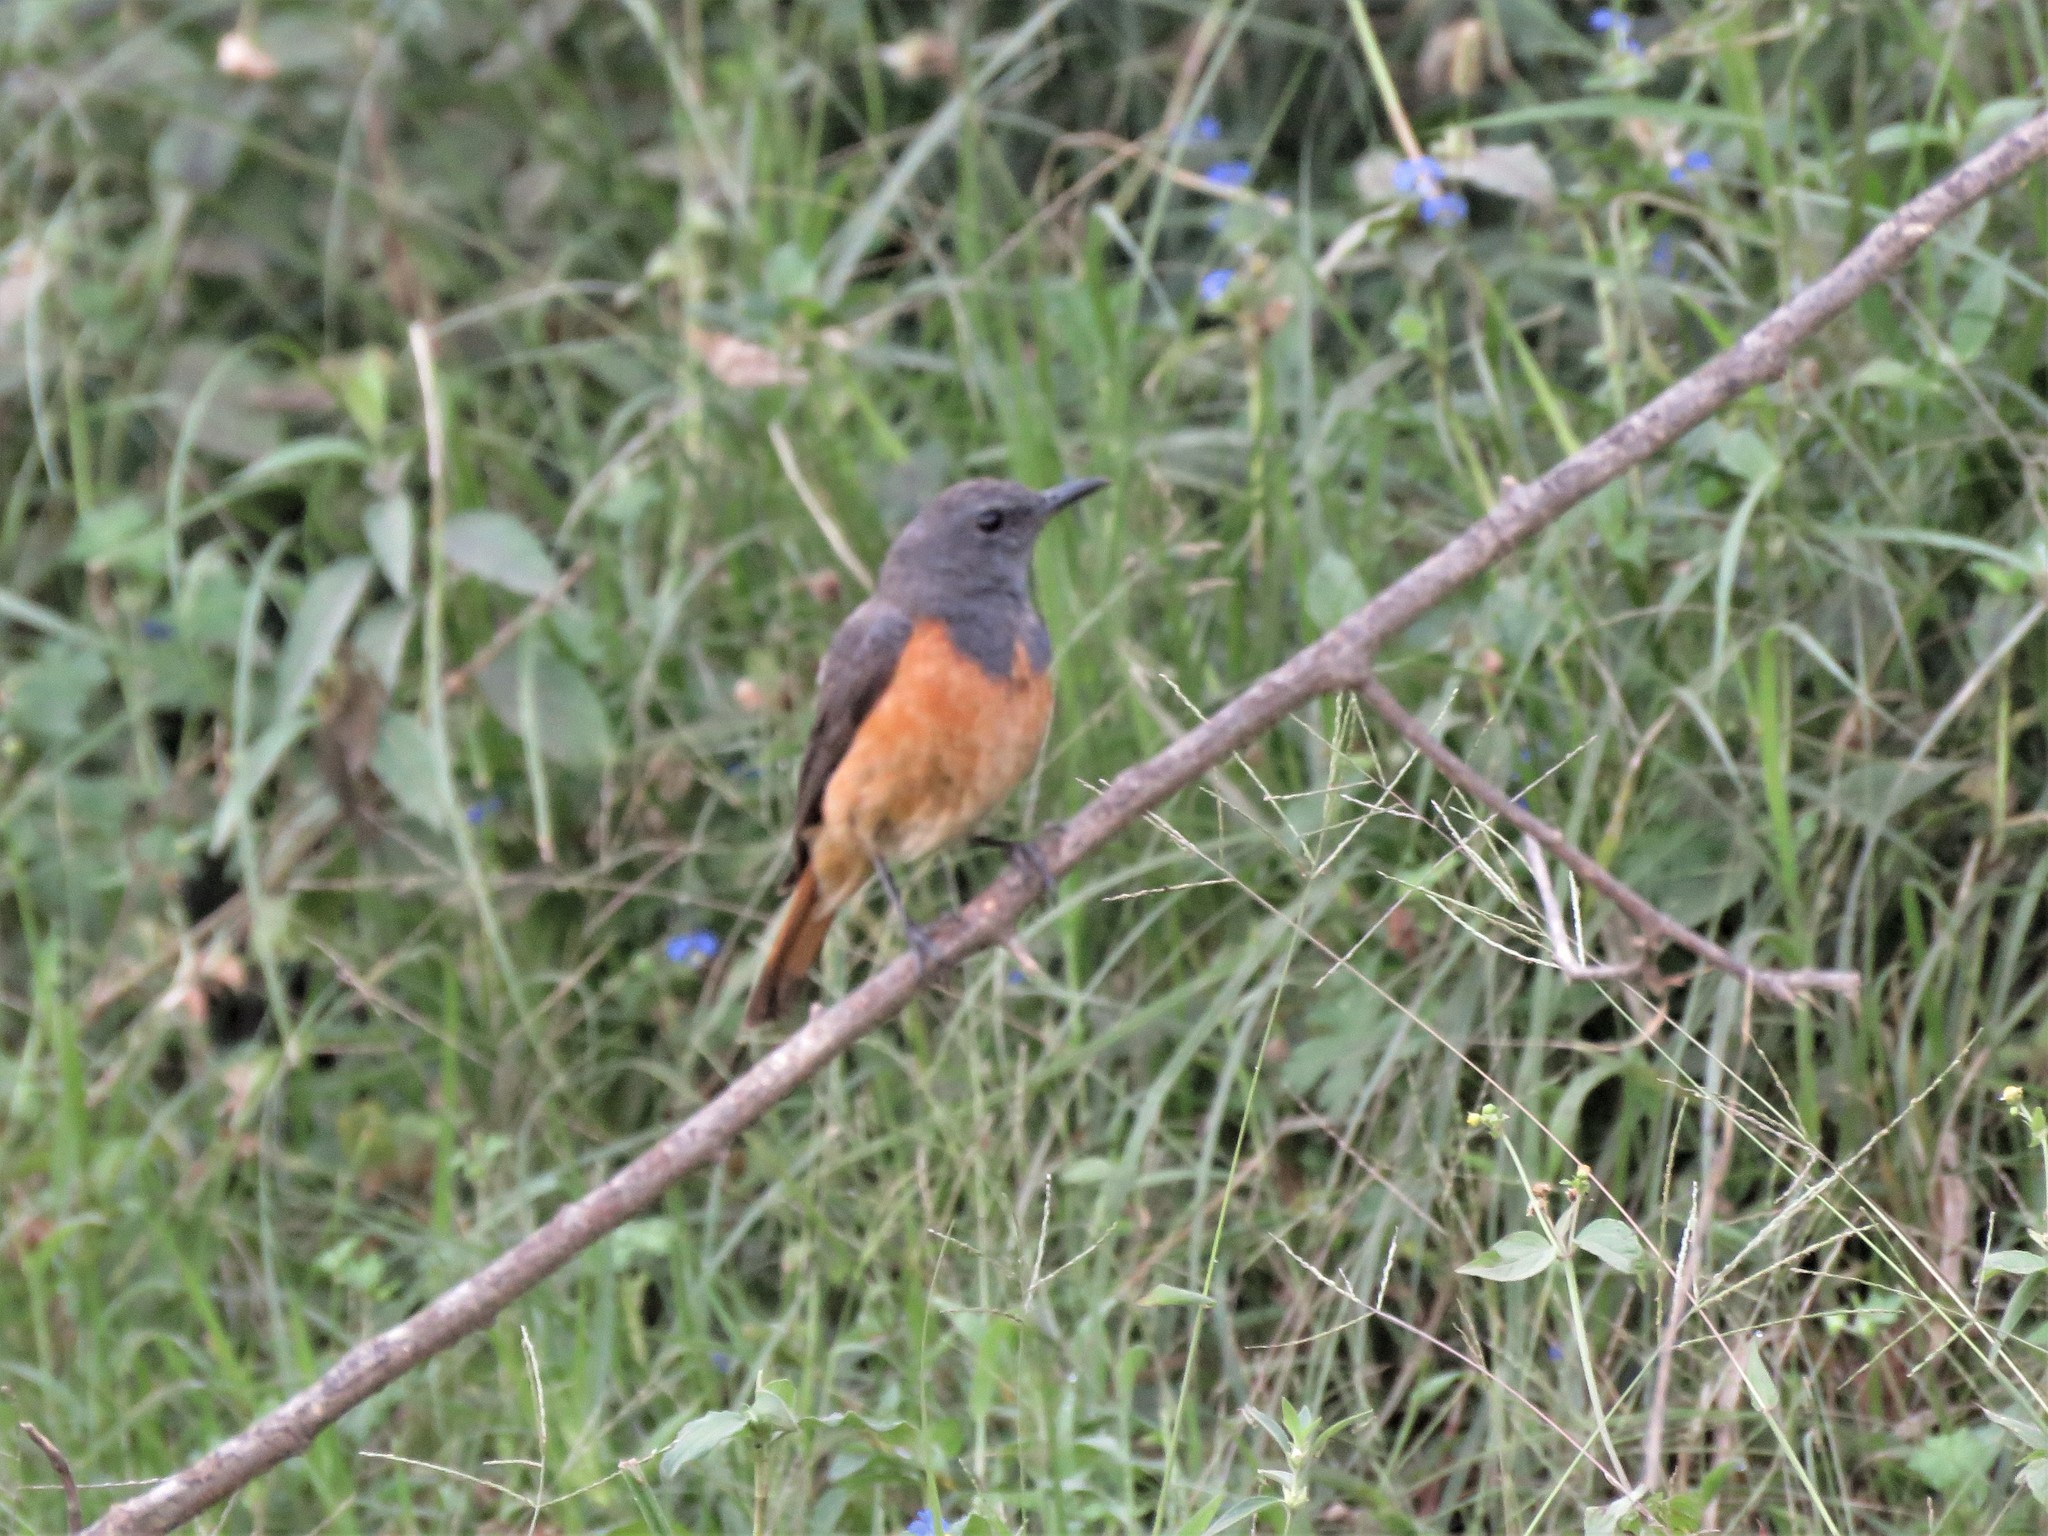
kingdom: Animalia
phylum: Chordata
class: Aves
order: Passeriformes
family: Muscicapidae
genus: Monticola
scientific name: Monticola rufocinereus
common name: Little rock thrush
